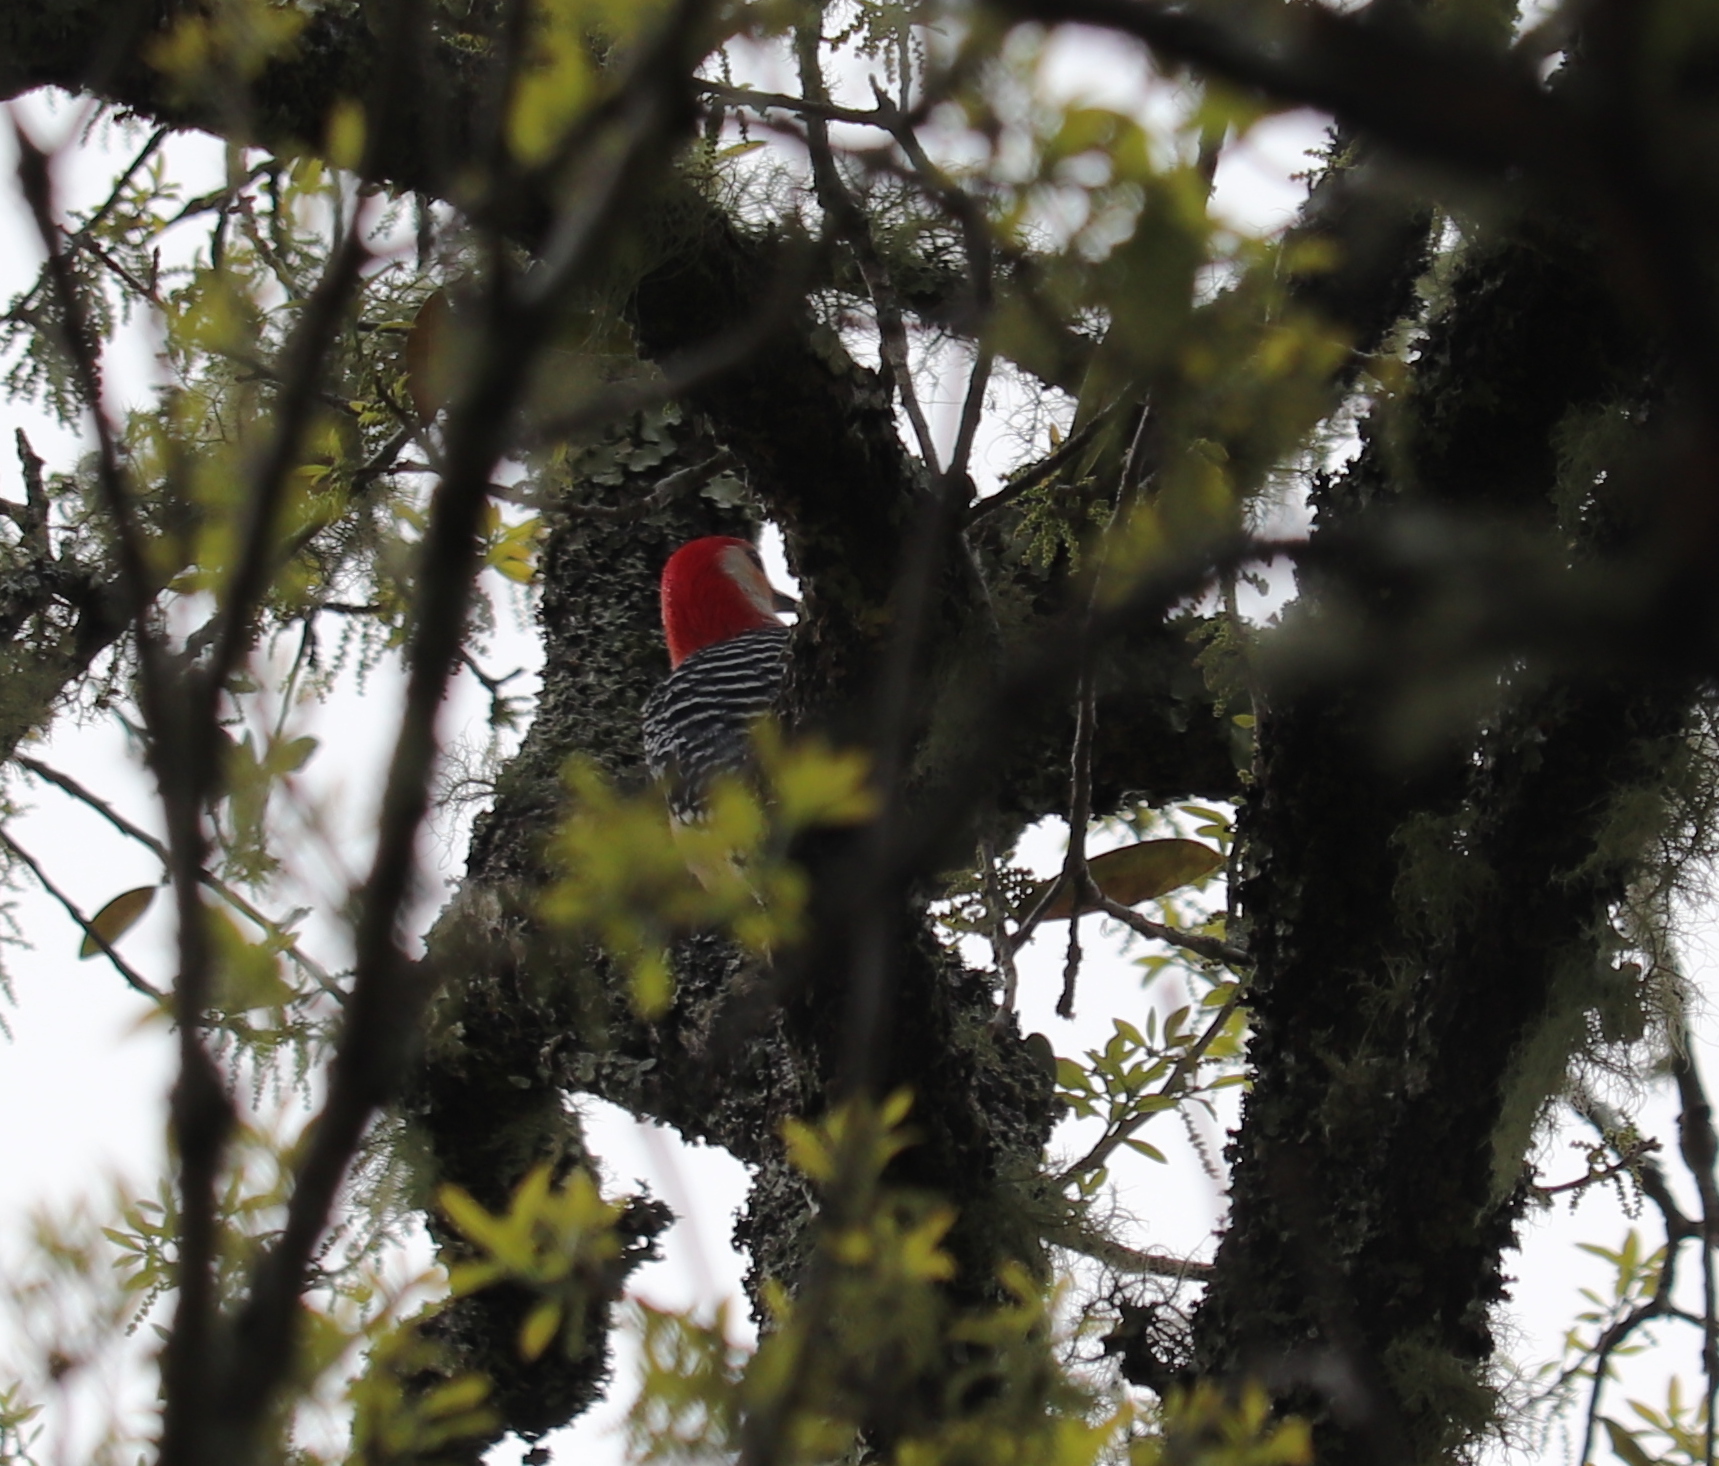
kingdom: Animalia
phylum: Chordata
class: Aves
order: Piciformes
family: Picidae
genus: Melanerpes
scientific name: Melanerpes carolinus
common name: Red-bellied woodpecker
